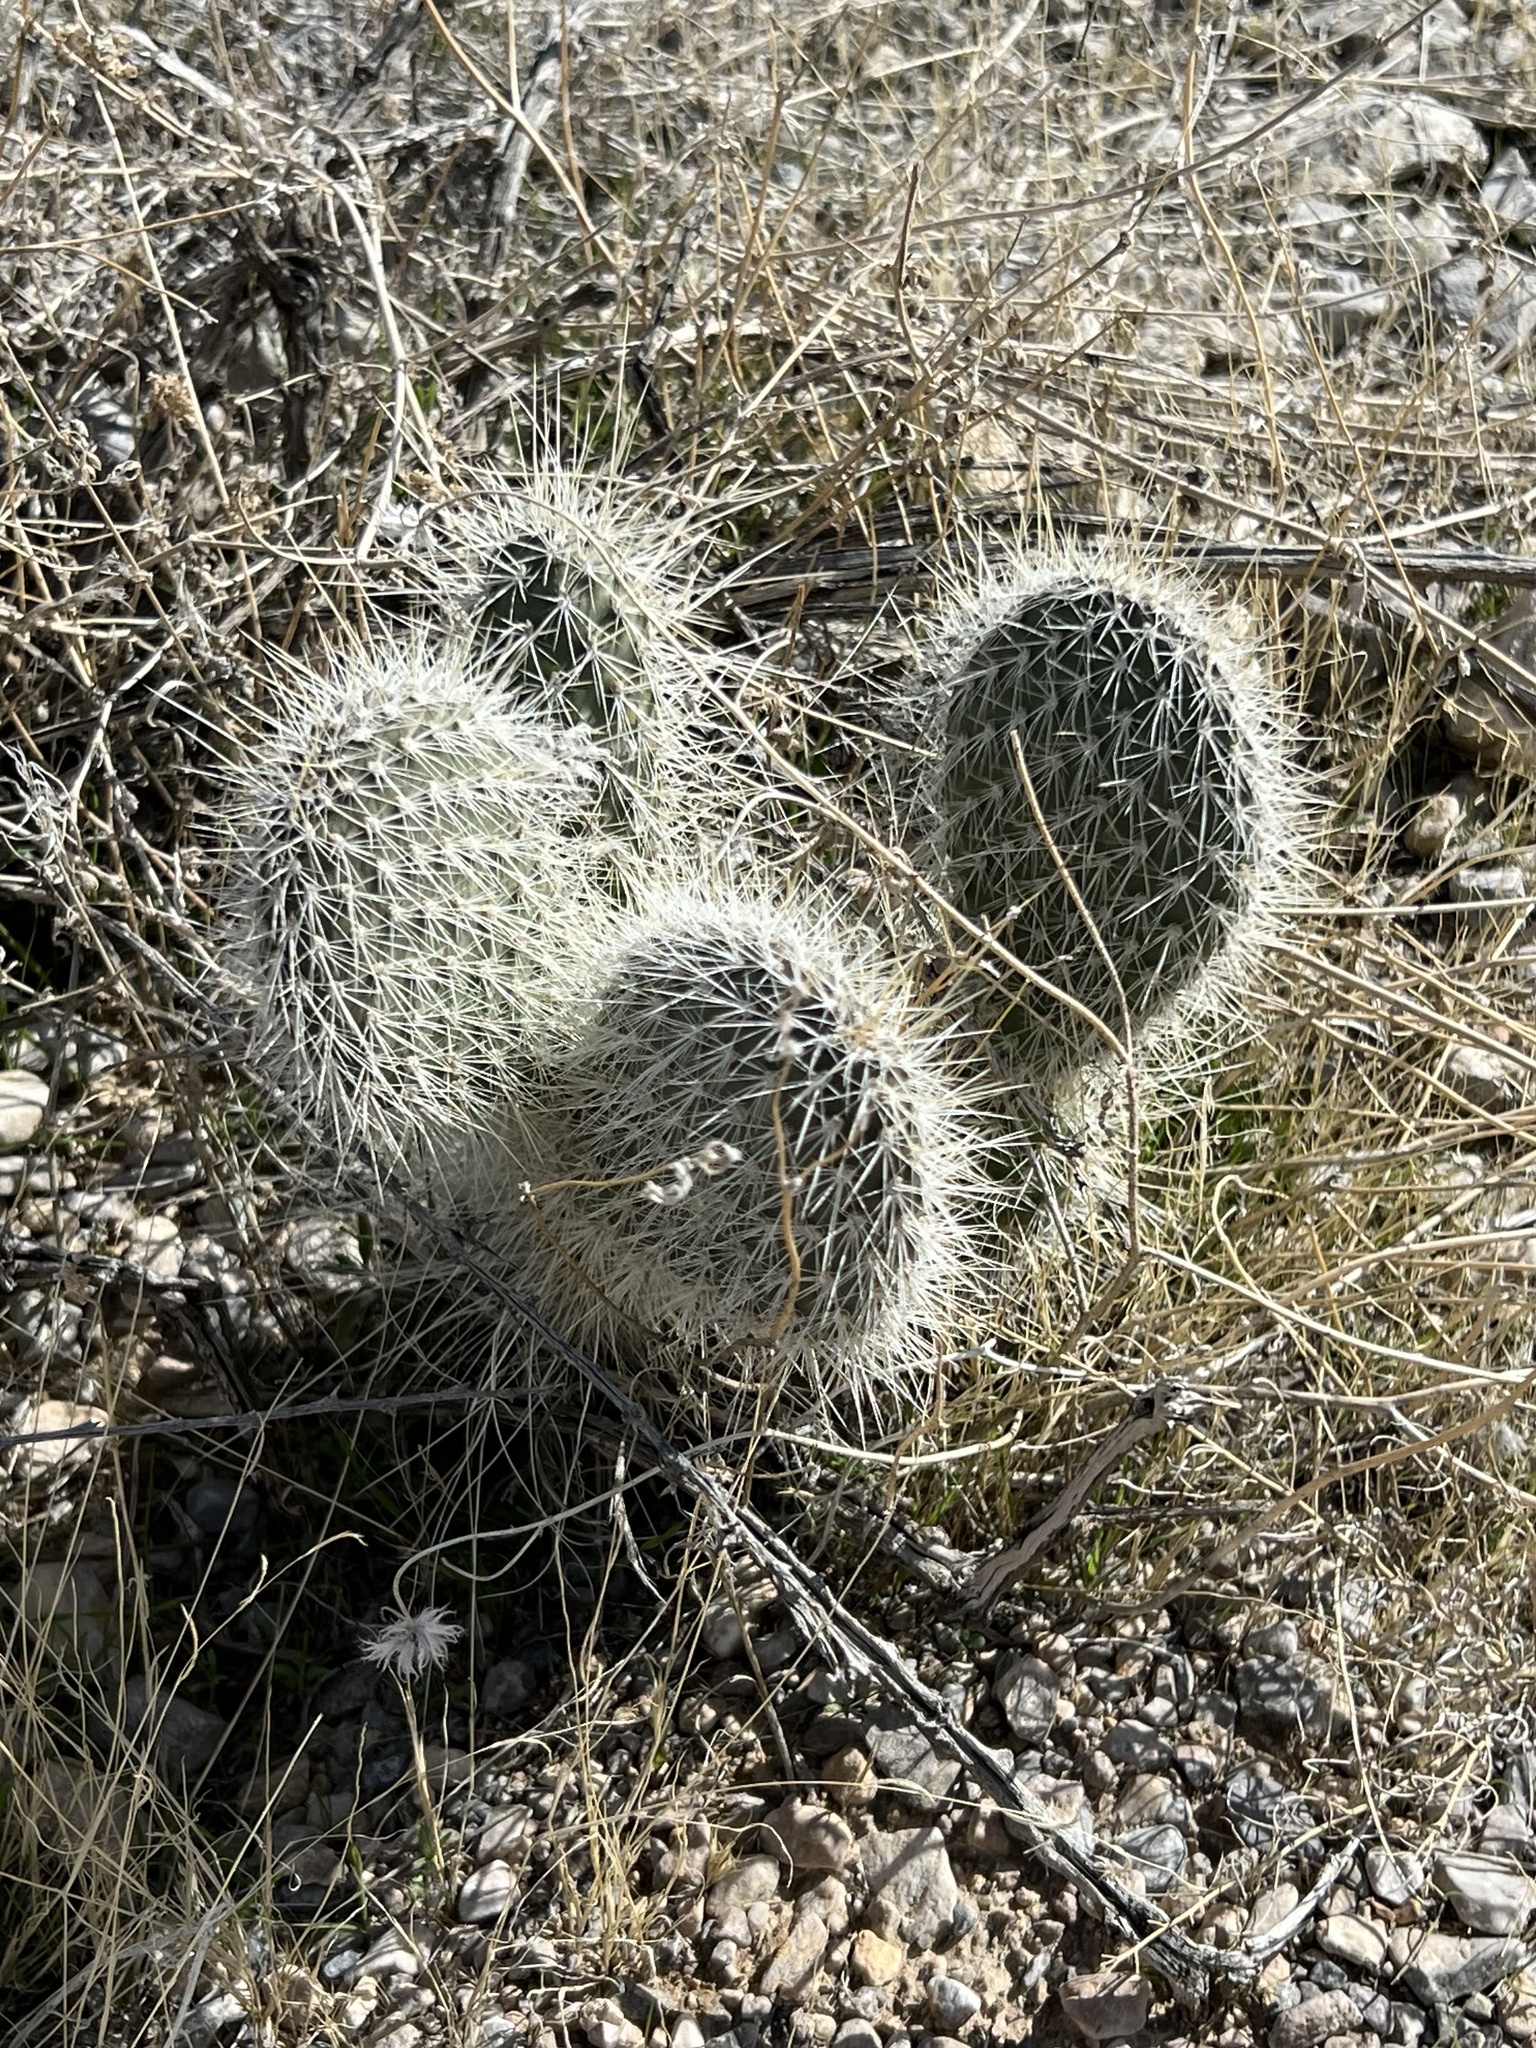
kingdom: Plantae
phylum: Tracheophyta
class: Magnoliopsida
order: Caryophyllales
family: Cactaceae
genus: Opuntia
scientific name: Opuntia polyacantha
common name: Plains prickly-pear
